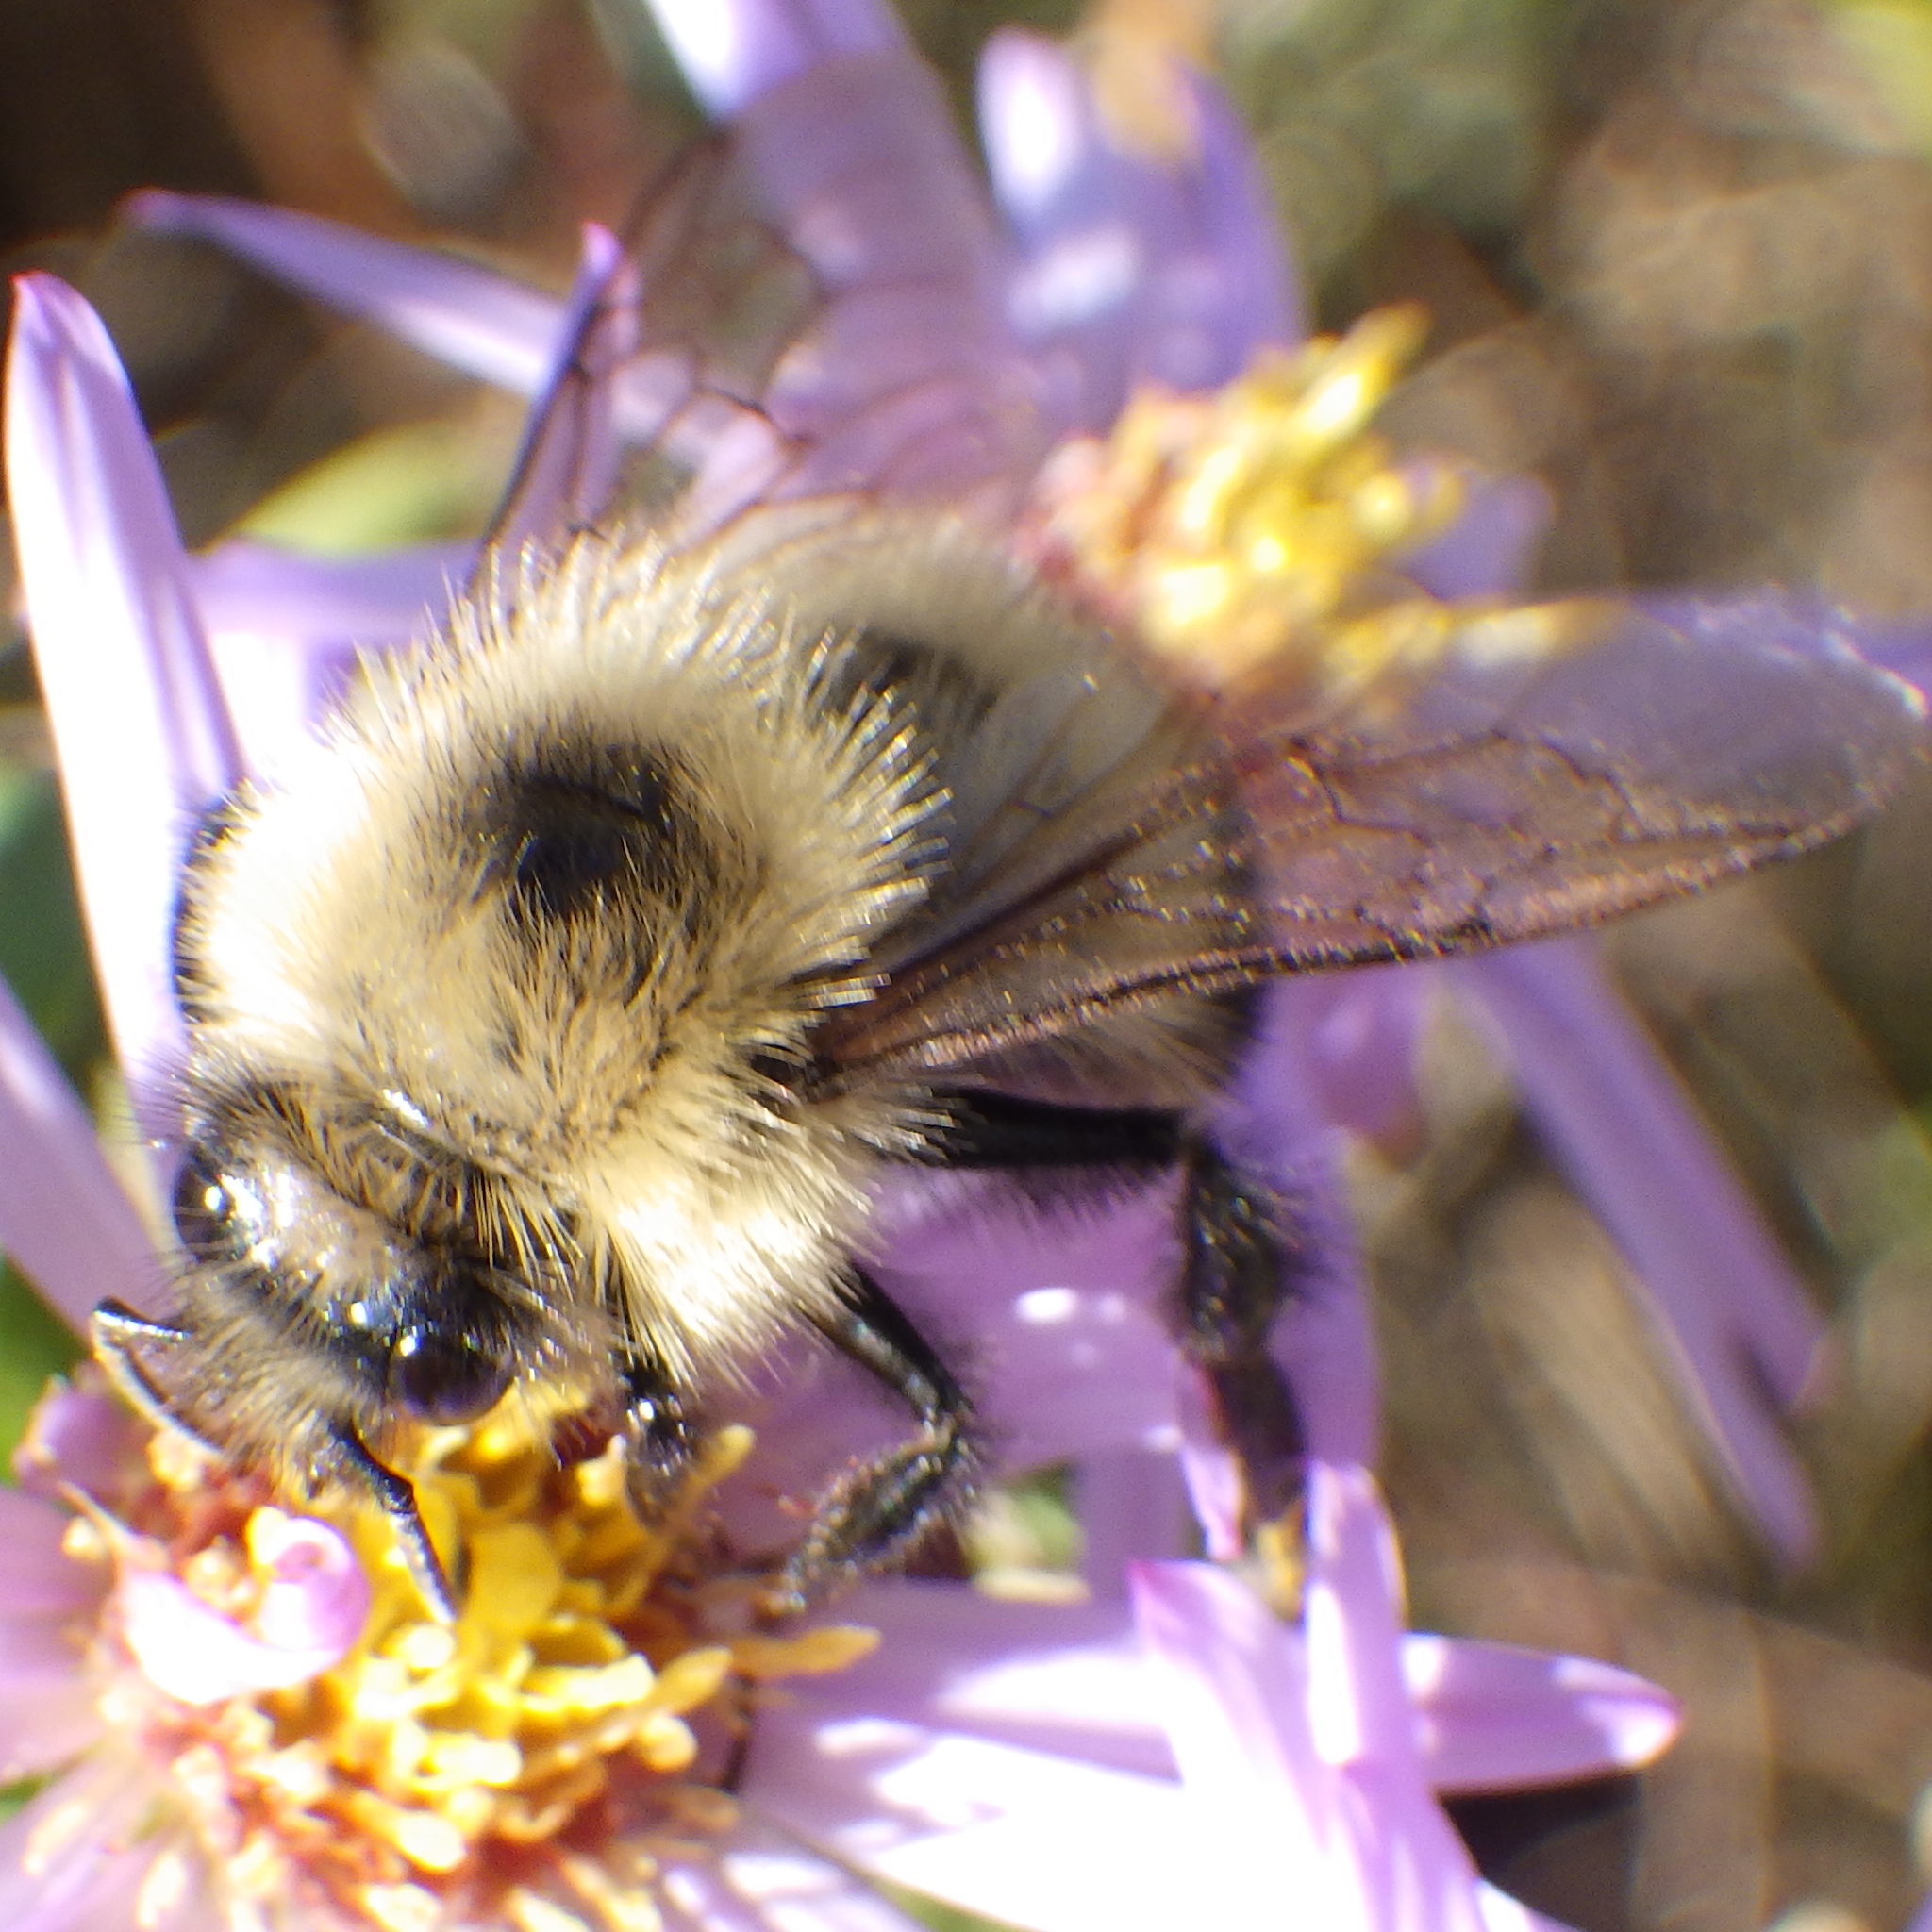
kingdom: Animalia
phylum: Arthropoda
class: Insecta
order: Hymenoptera
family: Apidae
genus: Pyrobombus
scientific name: Pyrobombus
